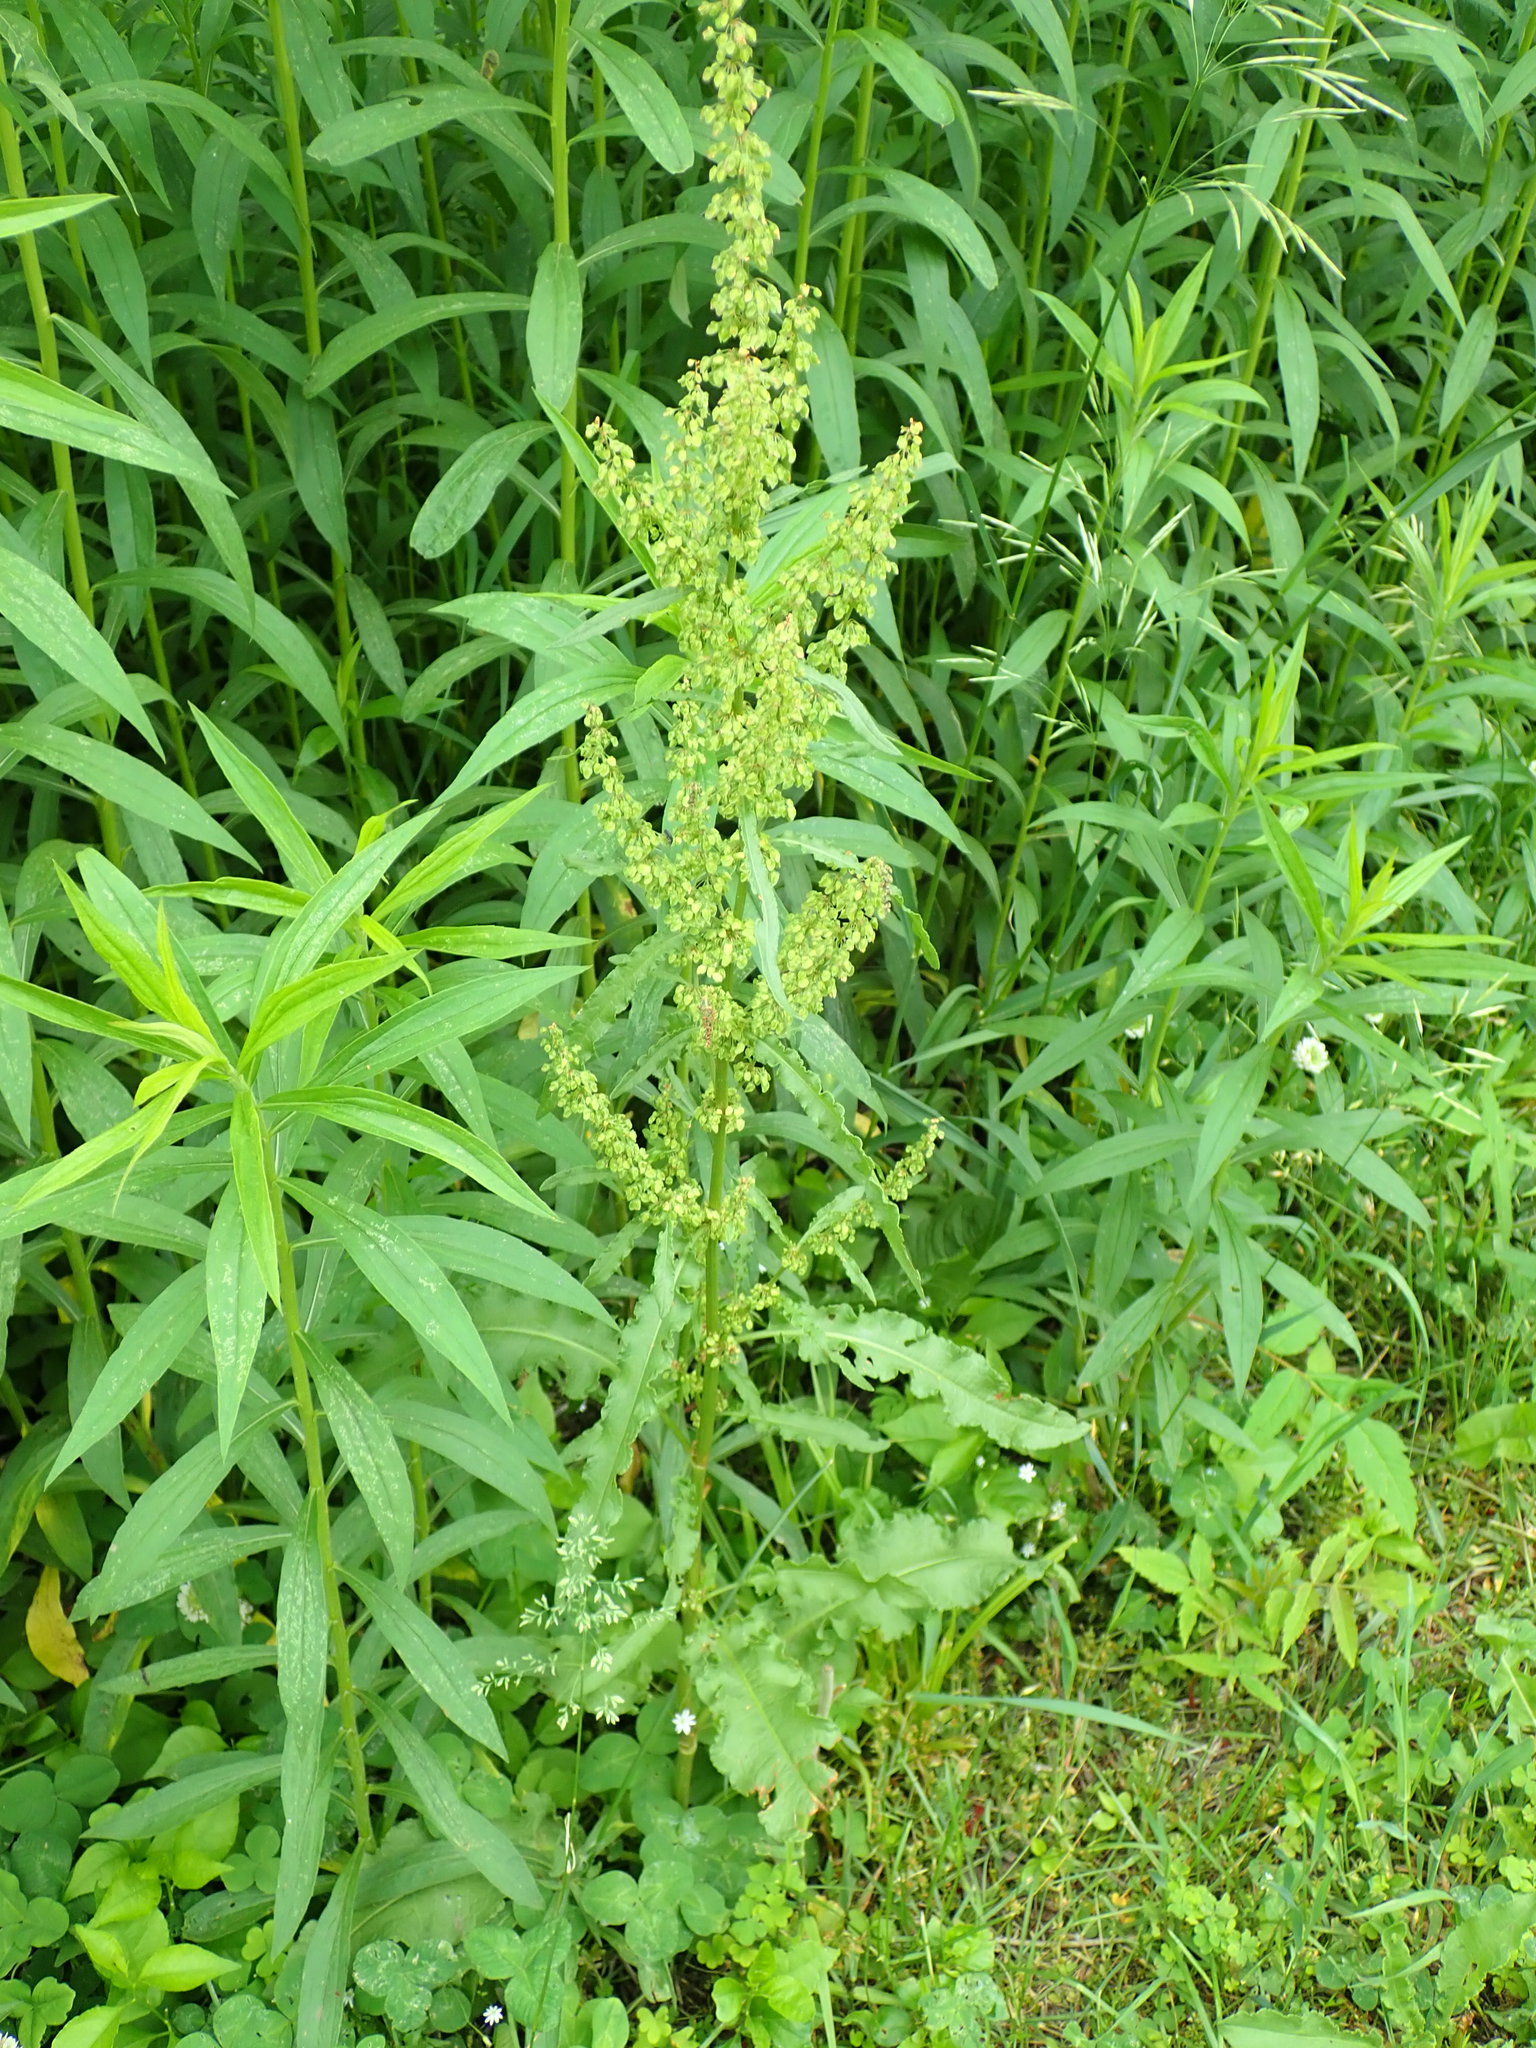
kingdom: Plantae
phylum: Tracheophyta
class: Magnoliopsida
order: Caryophyllales
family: Polygonaceae
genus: Rumex
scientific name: Rumex crispus
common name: Curled dock
